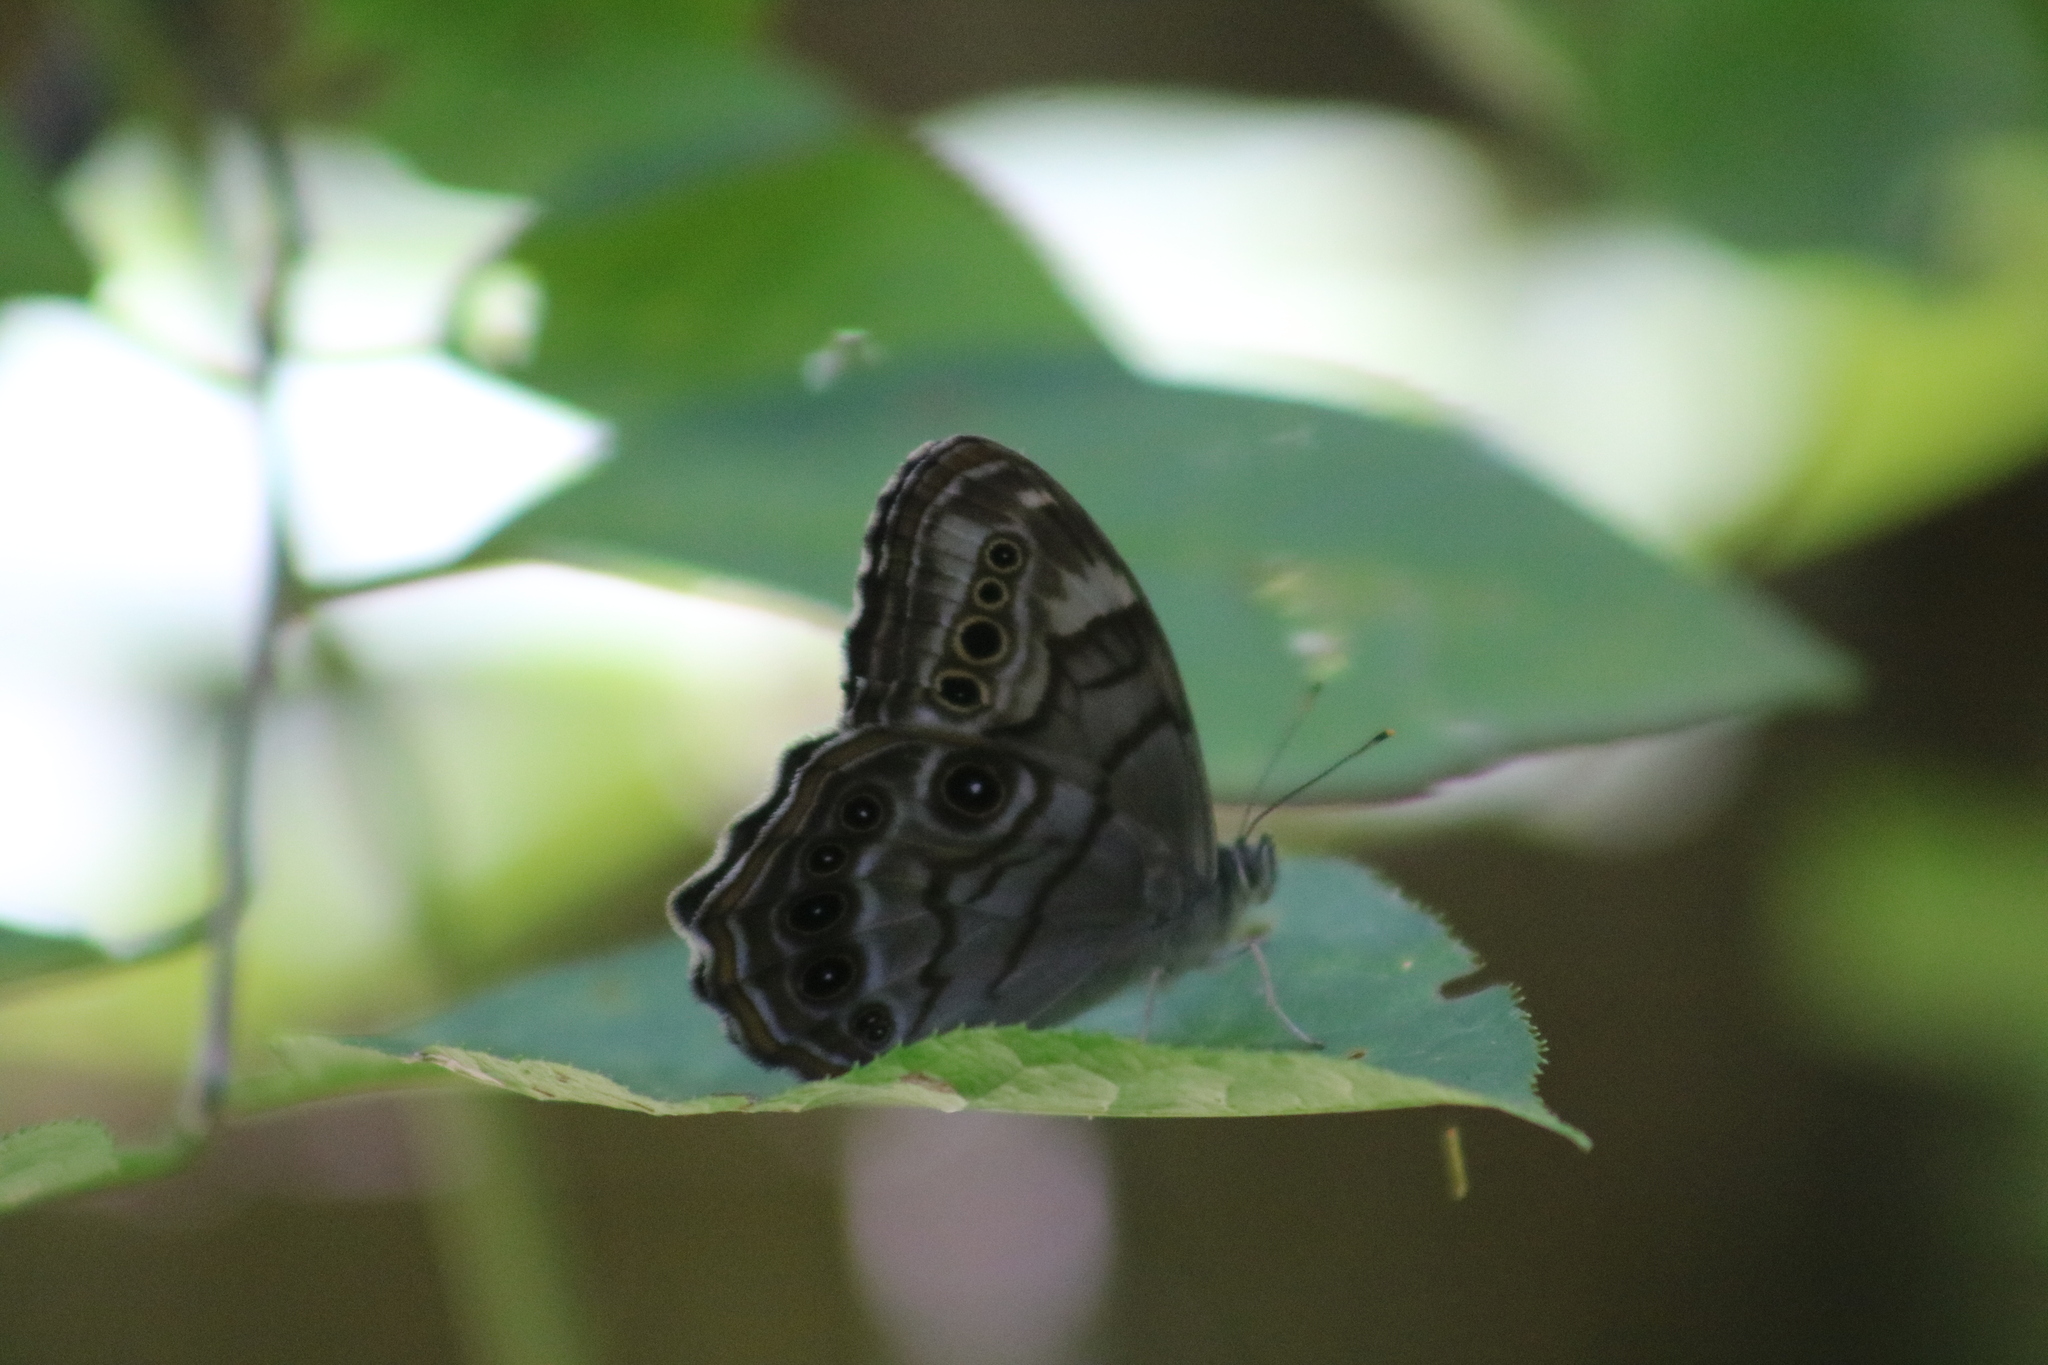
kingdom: Animalia
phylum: Arthropoda
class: Insecta
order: Lepidoptera
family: Nymphalidae
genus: Lethe
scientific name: Lethe anthedon
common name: Northern pearly-eye
